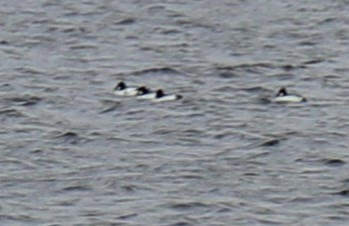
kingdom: Animalia
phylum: Chordata
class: Aves
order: Anseriformes
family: Anatidae
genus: Bucephala
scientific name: Bucephala clangula
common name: Common goldeneye
